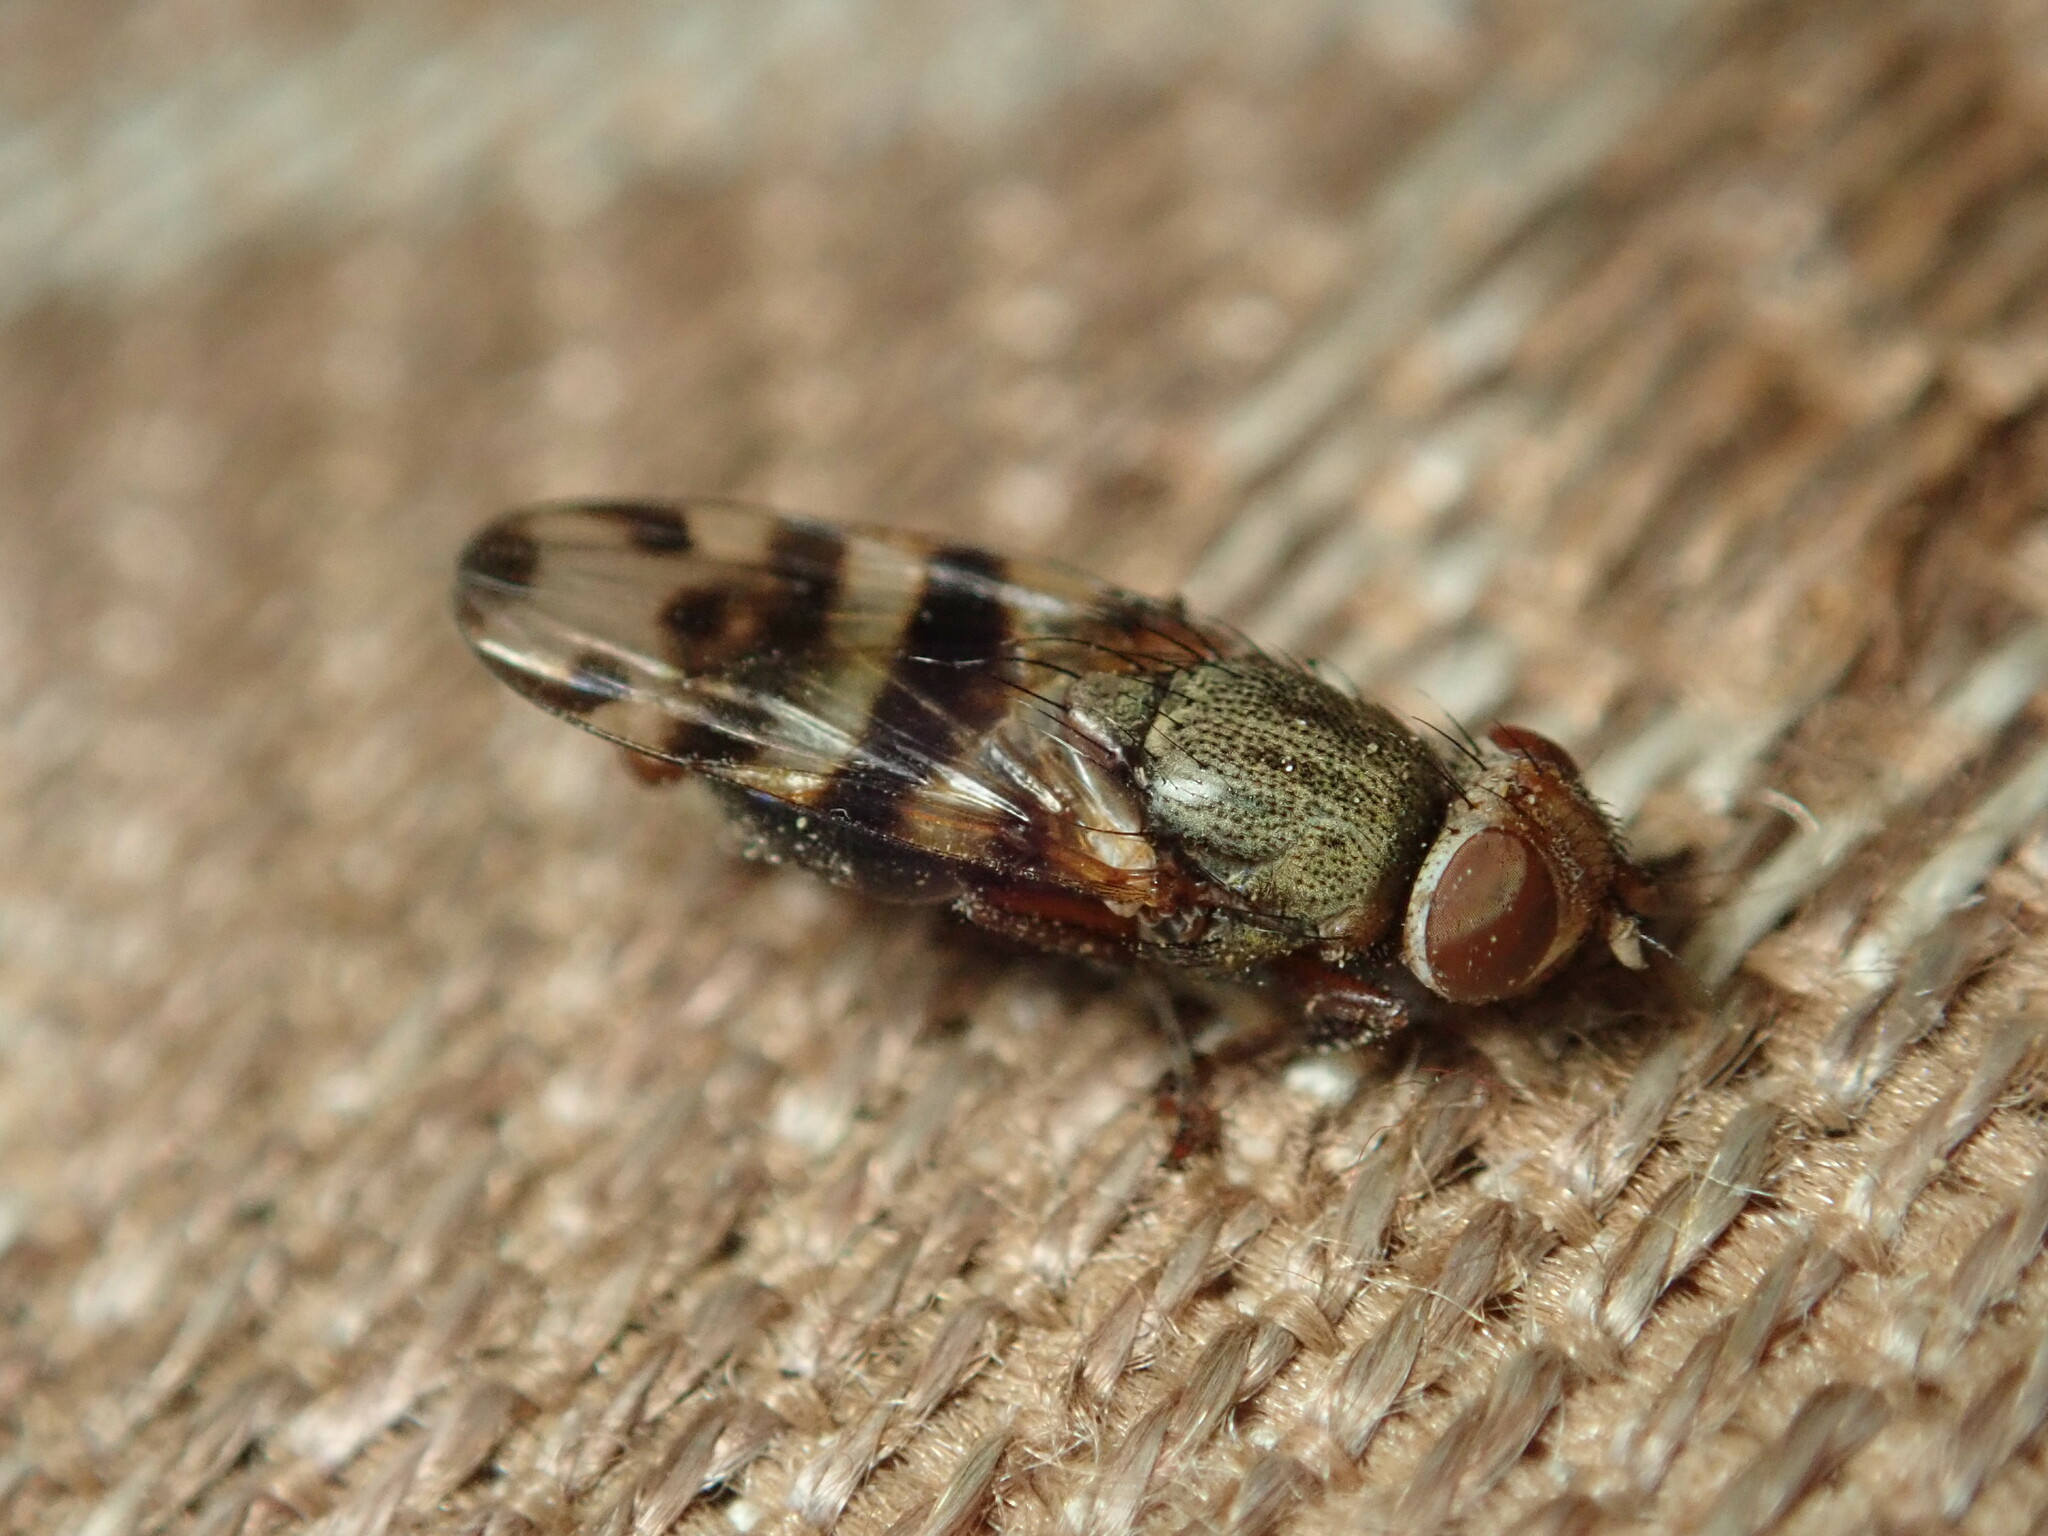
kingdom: Animalia
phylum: Arthropoda
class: Insecta
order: Diptera
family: Ulidiidae
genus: Ceroxys
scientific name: Ceroxys latiusculus
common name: Picture-winged fly
